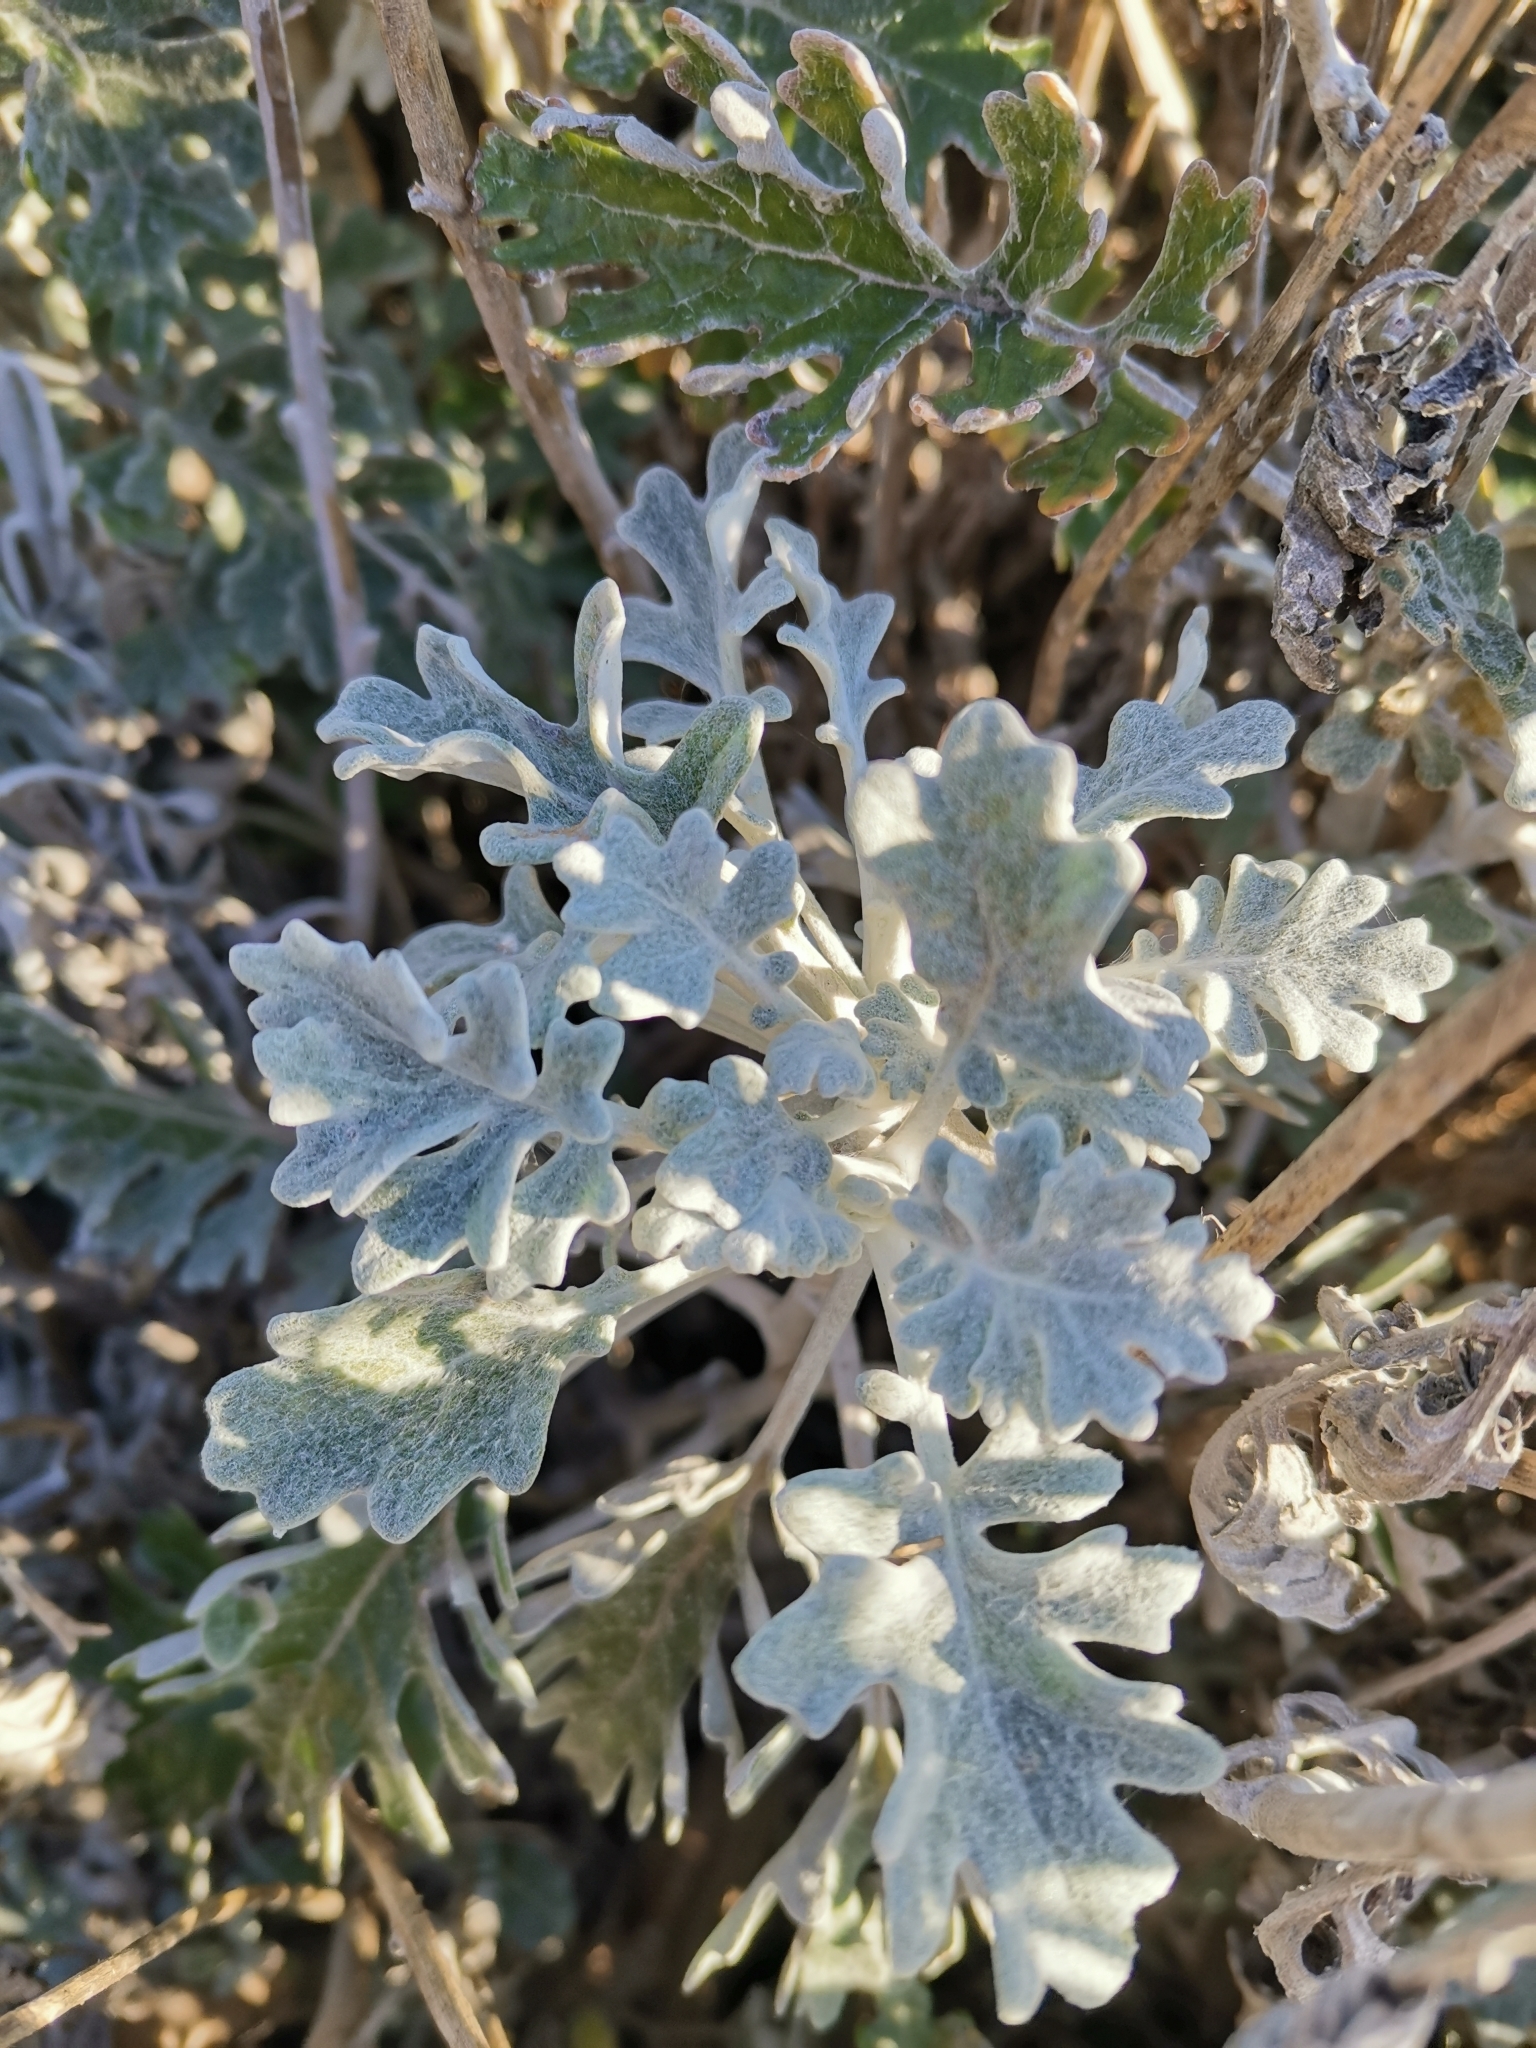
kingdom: Plantae
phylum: Tracheophyta
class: Magnoliopsida
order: Asterales
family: Asteraceae
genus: Jacobaea
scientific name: Jacobaea maritima
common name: Silver ragwort
